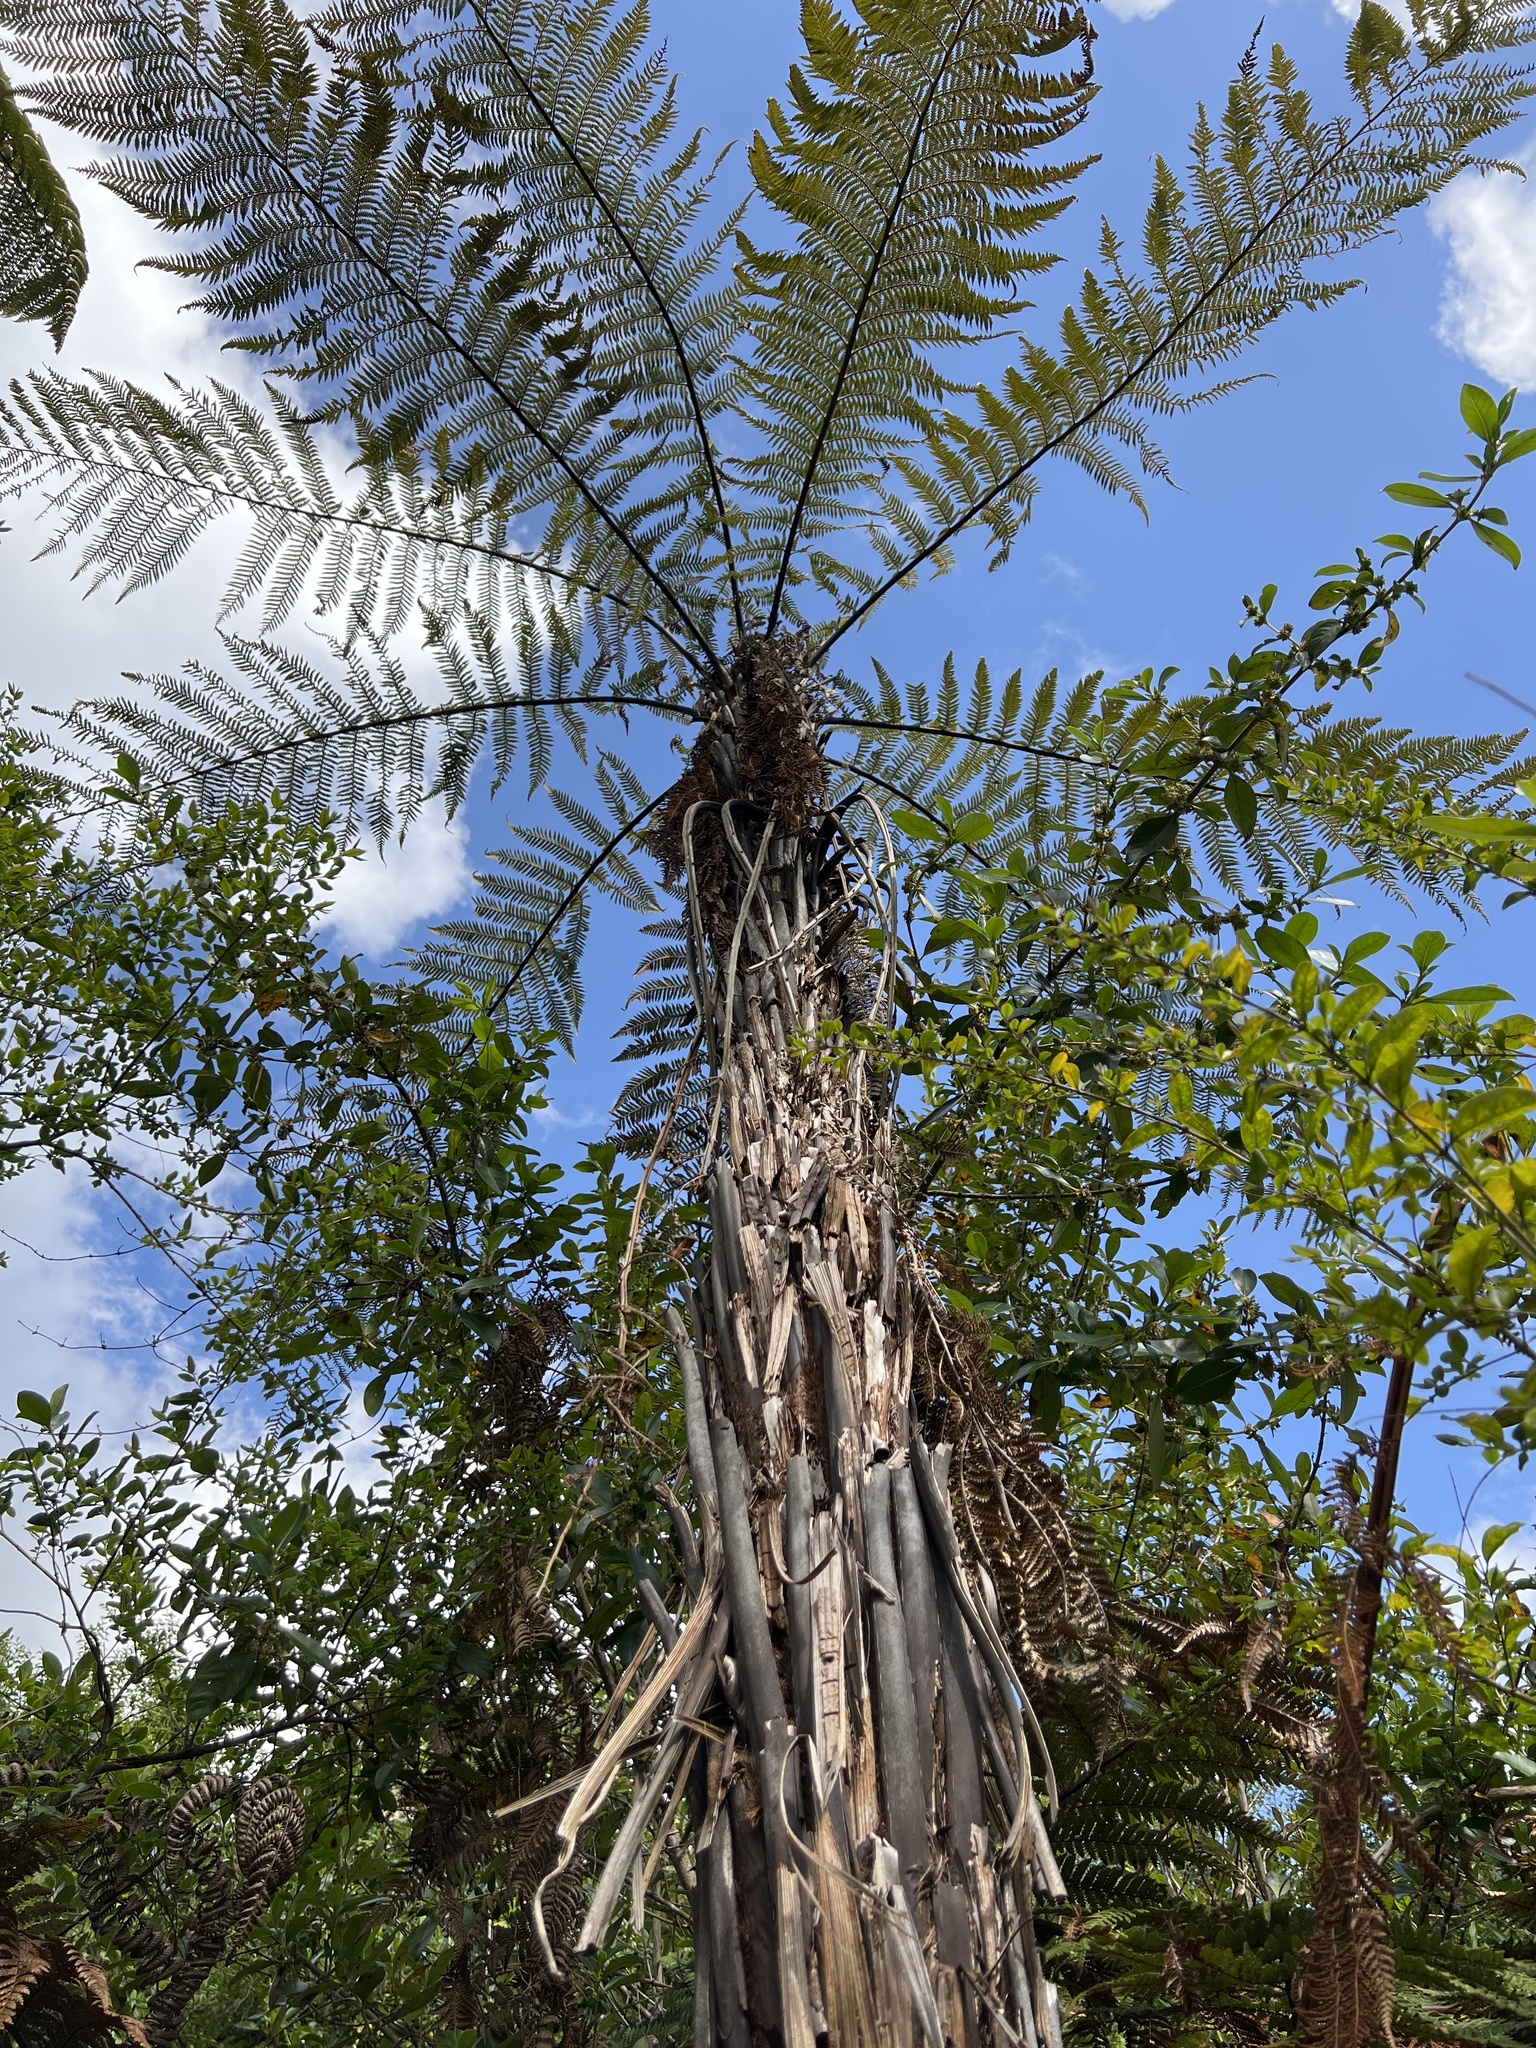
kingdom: Plantae
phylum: Tracheophyta
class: Polypodiopsida
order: Cyatheales
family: Dicksoniaceae
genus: Dicksonia
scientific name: Dicksonia squarrosa
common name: Hard treefern
